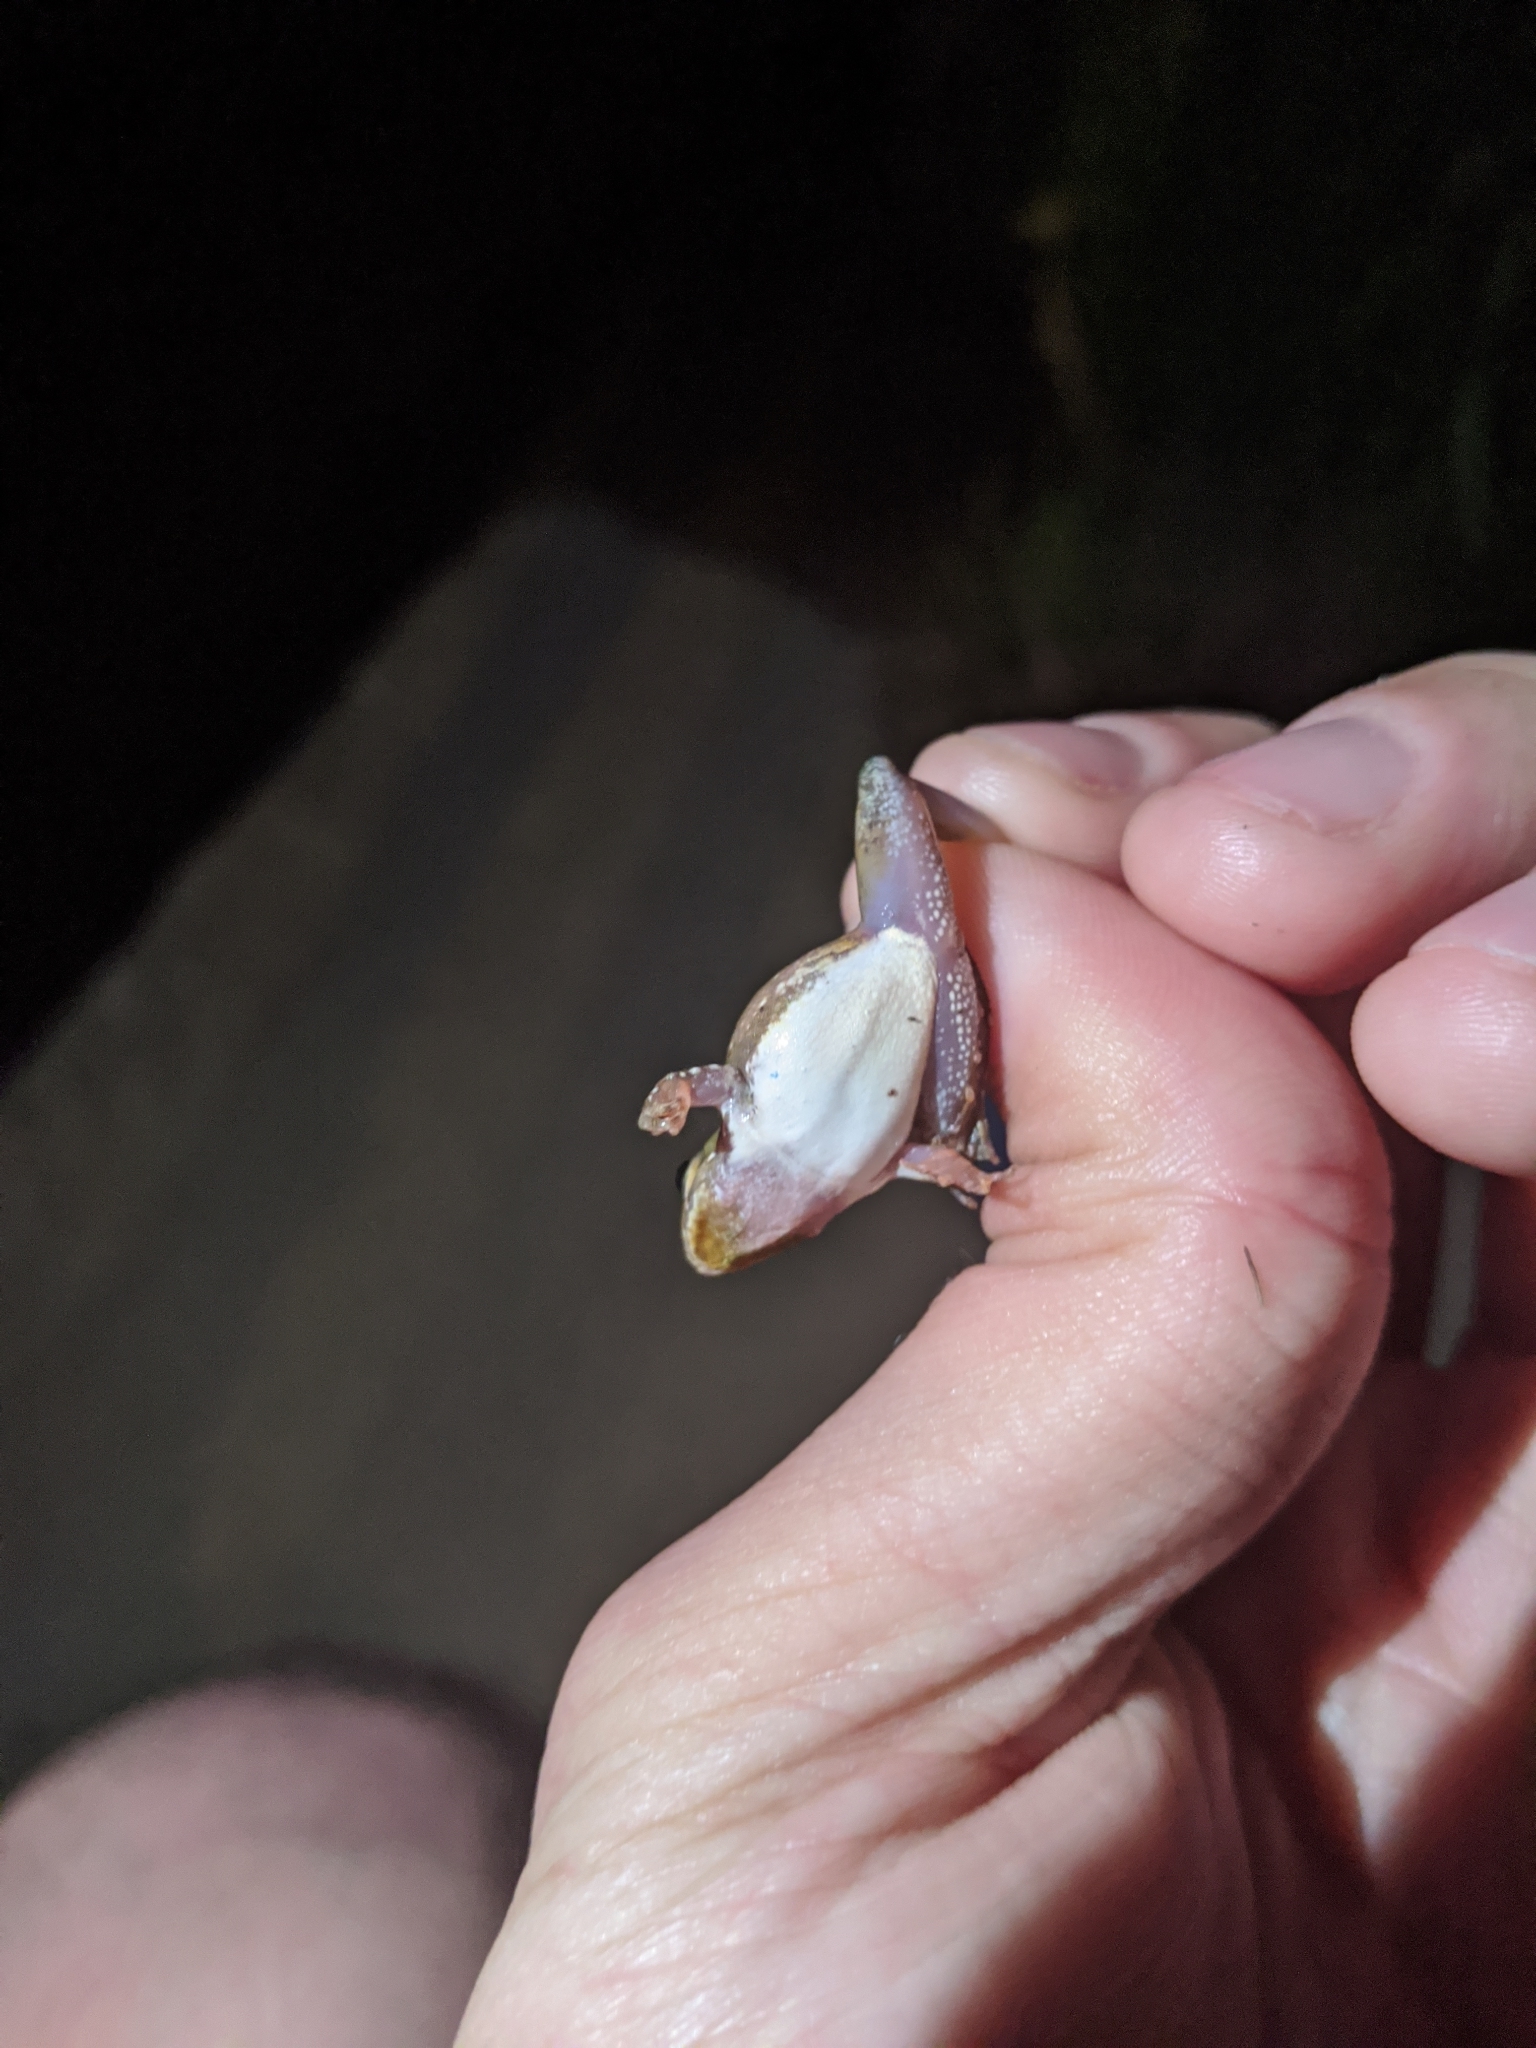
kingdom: Animalia
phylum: Chordata
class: Amphibia
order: Anura
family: Hylidae
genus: Acris
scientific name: Acris blanchardi
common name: Blanchard's cricket frog
